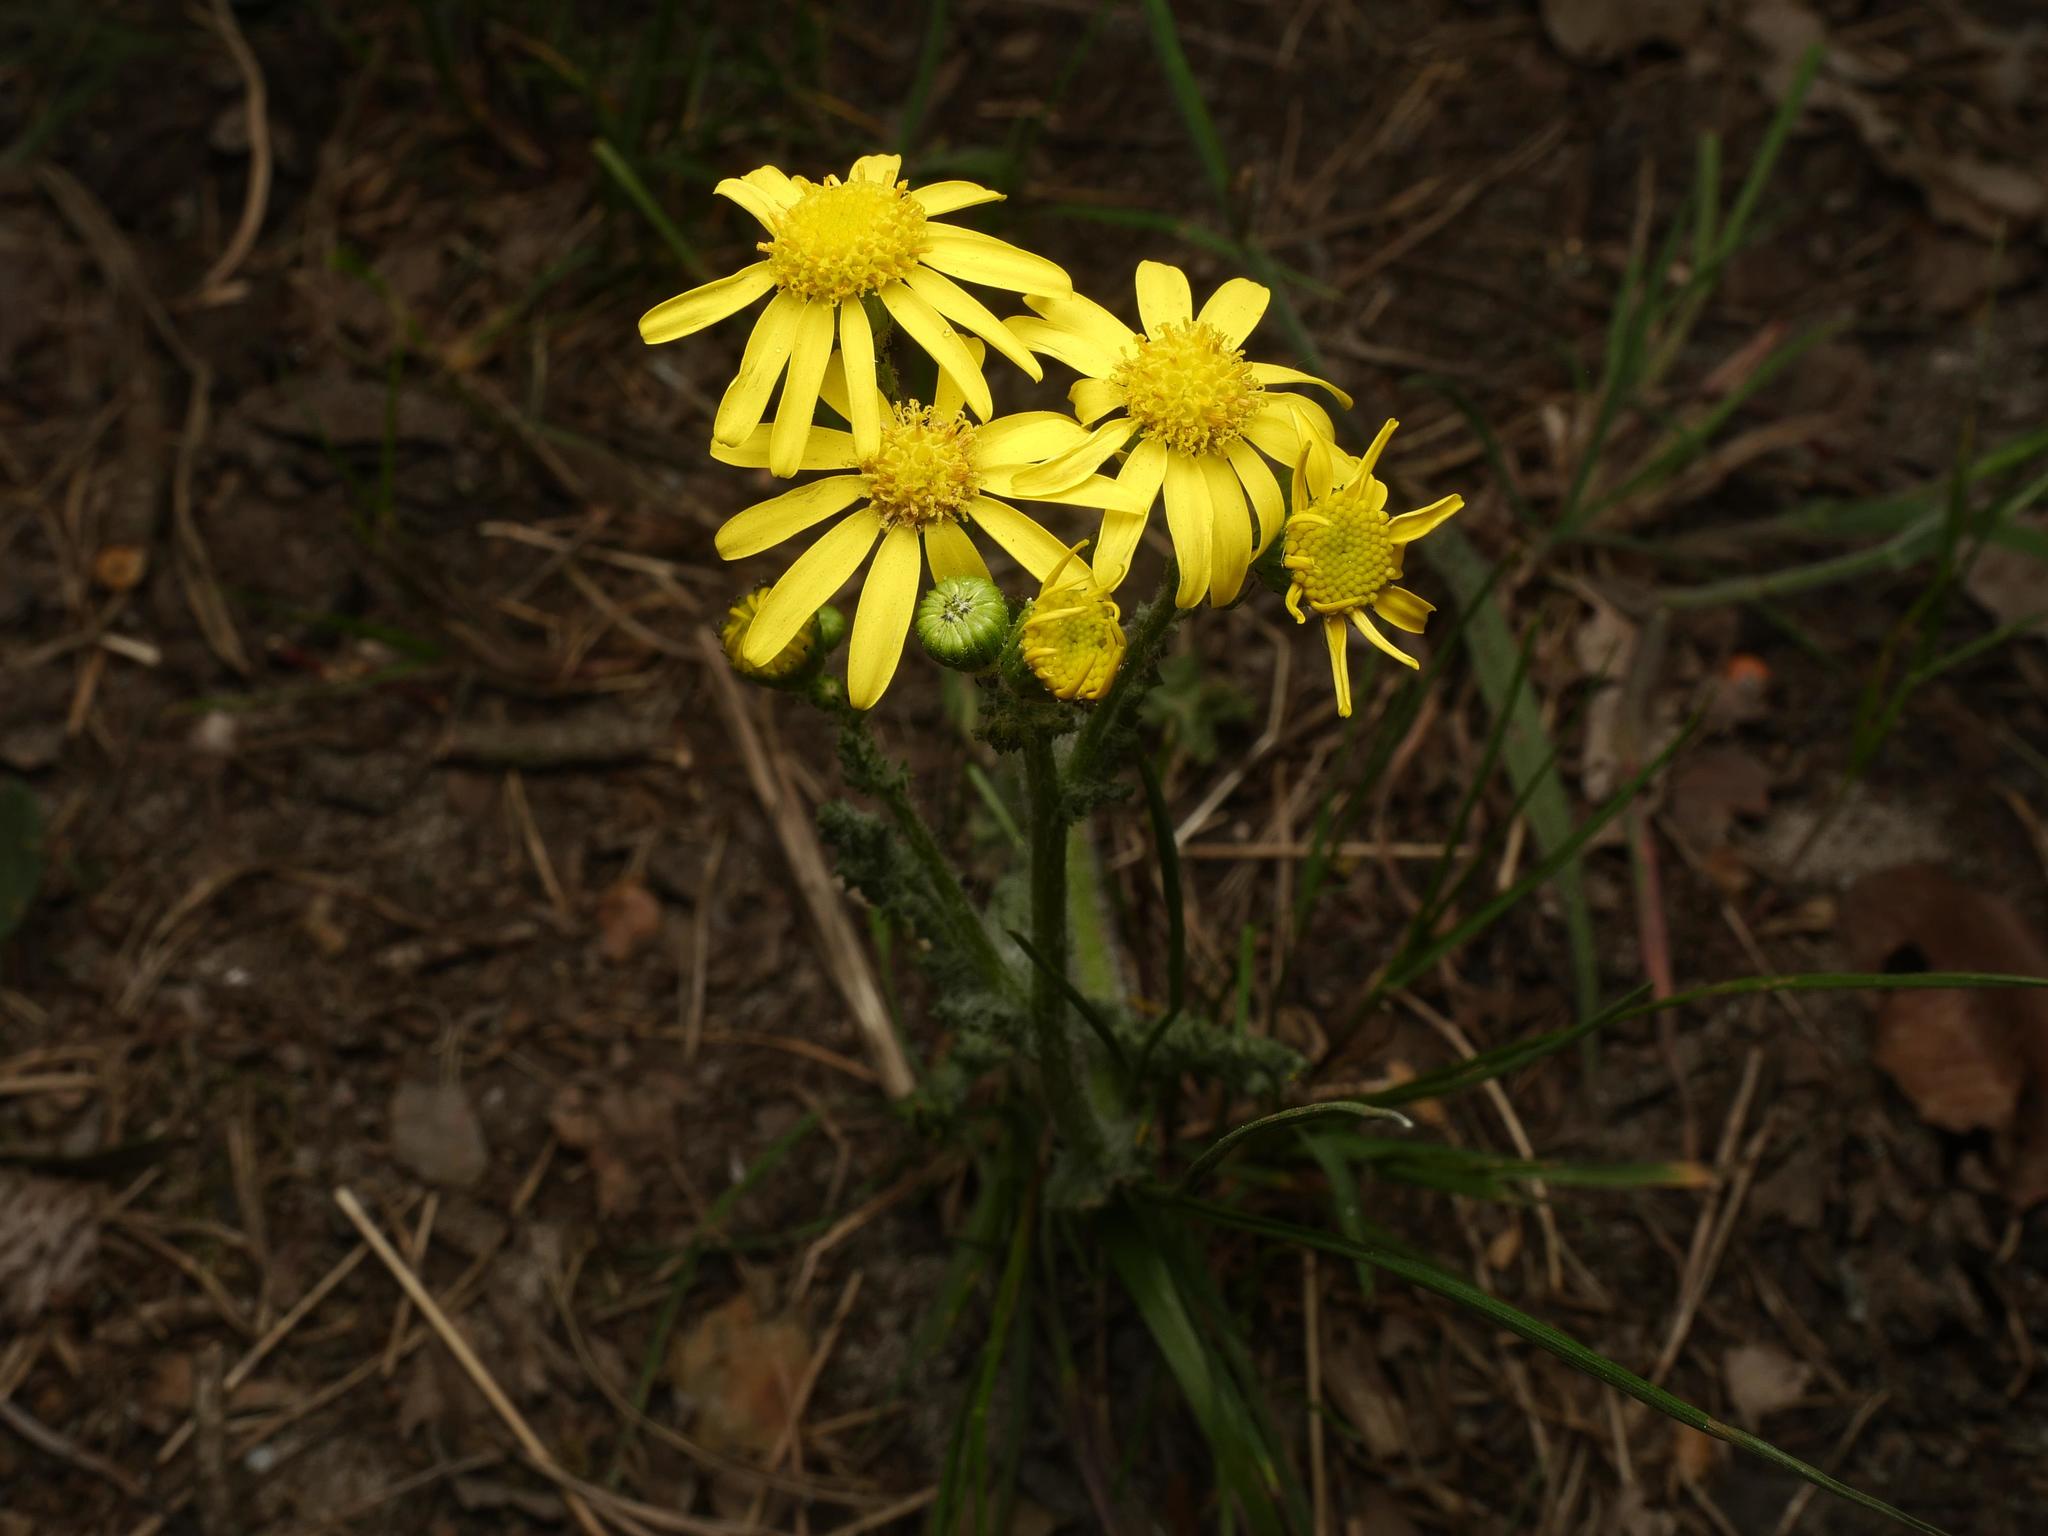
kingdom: Plantae
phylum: Tracheophyta
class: Magnoliopsida
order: Asterales
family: Asteraceae
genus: Senecio
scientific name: Senecio vernalis
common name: Eastern groundsel
